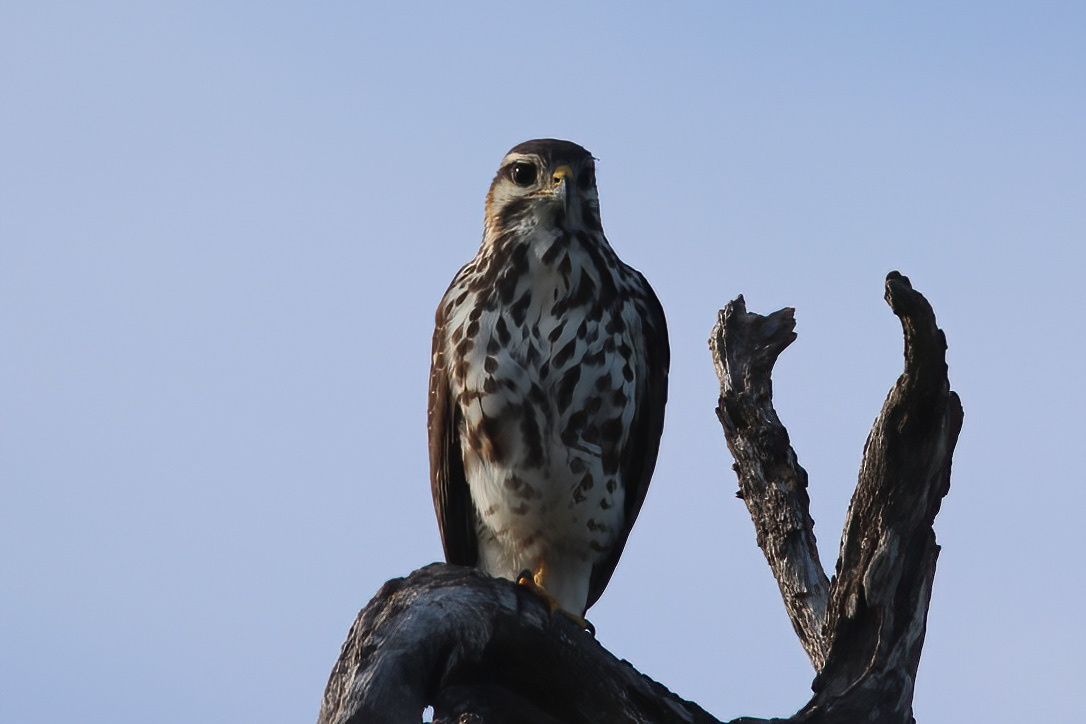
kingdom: Animalia
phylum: Chordata
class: Aves
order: Accipitriformes
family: Accipitridae
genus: Buteo
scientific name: Buteo nitidus
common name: Grey-lined hawk
